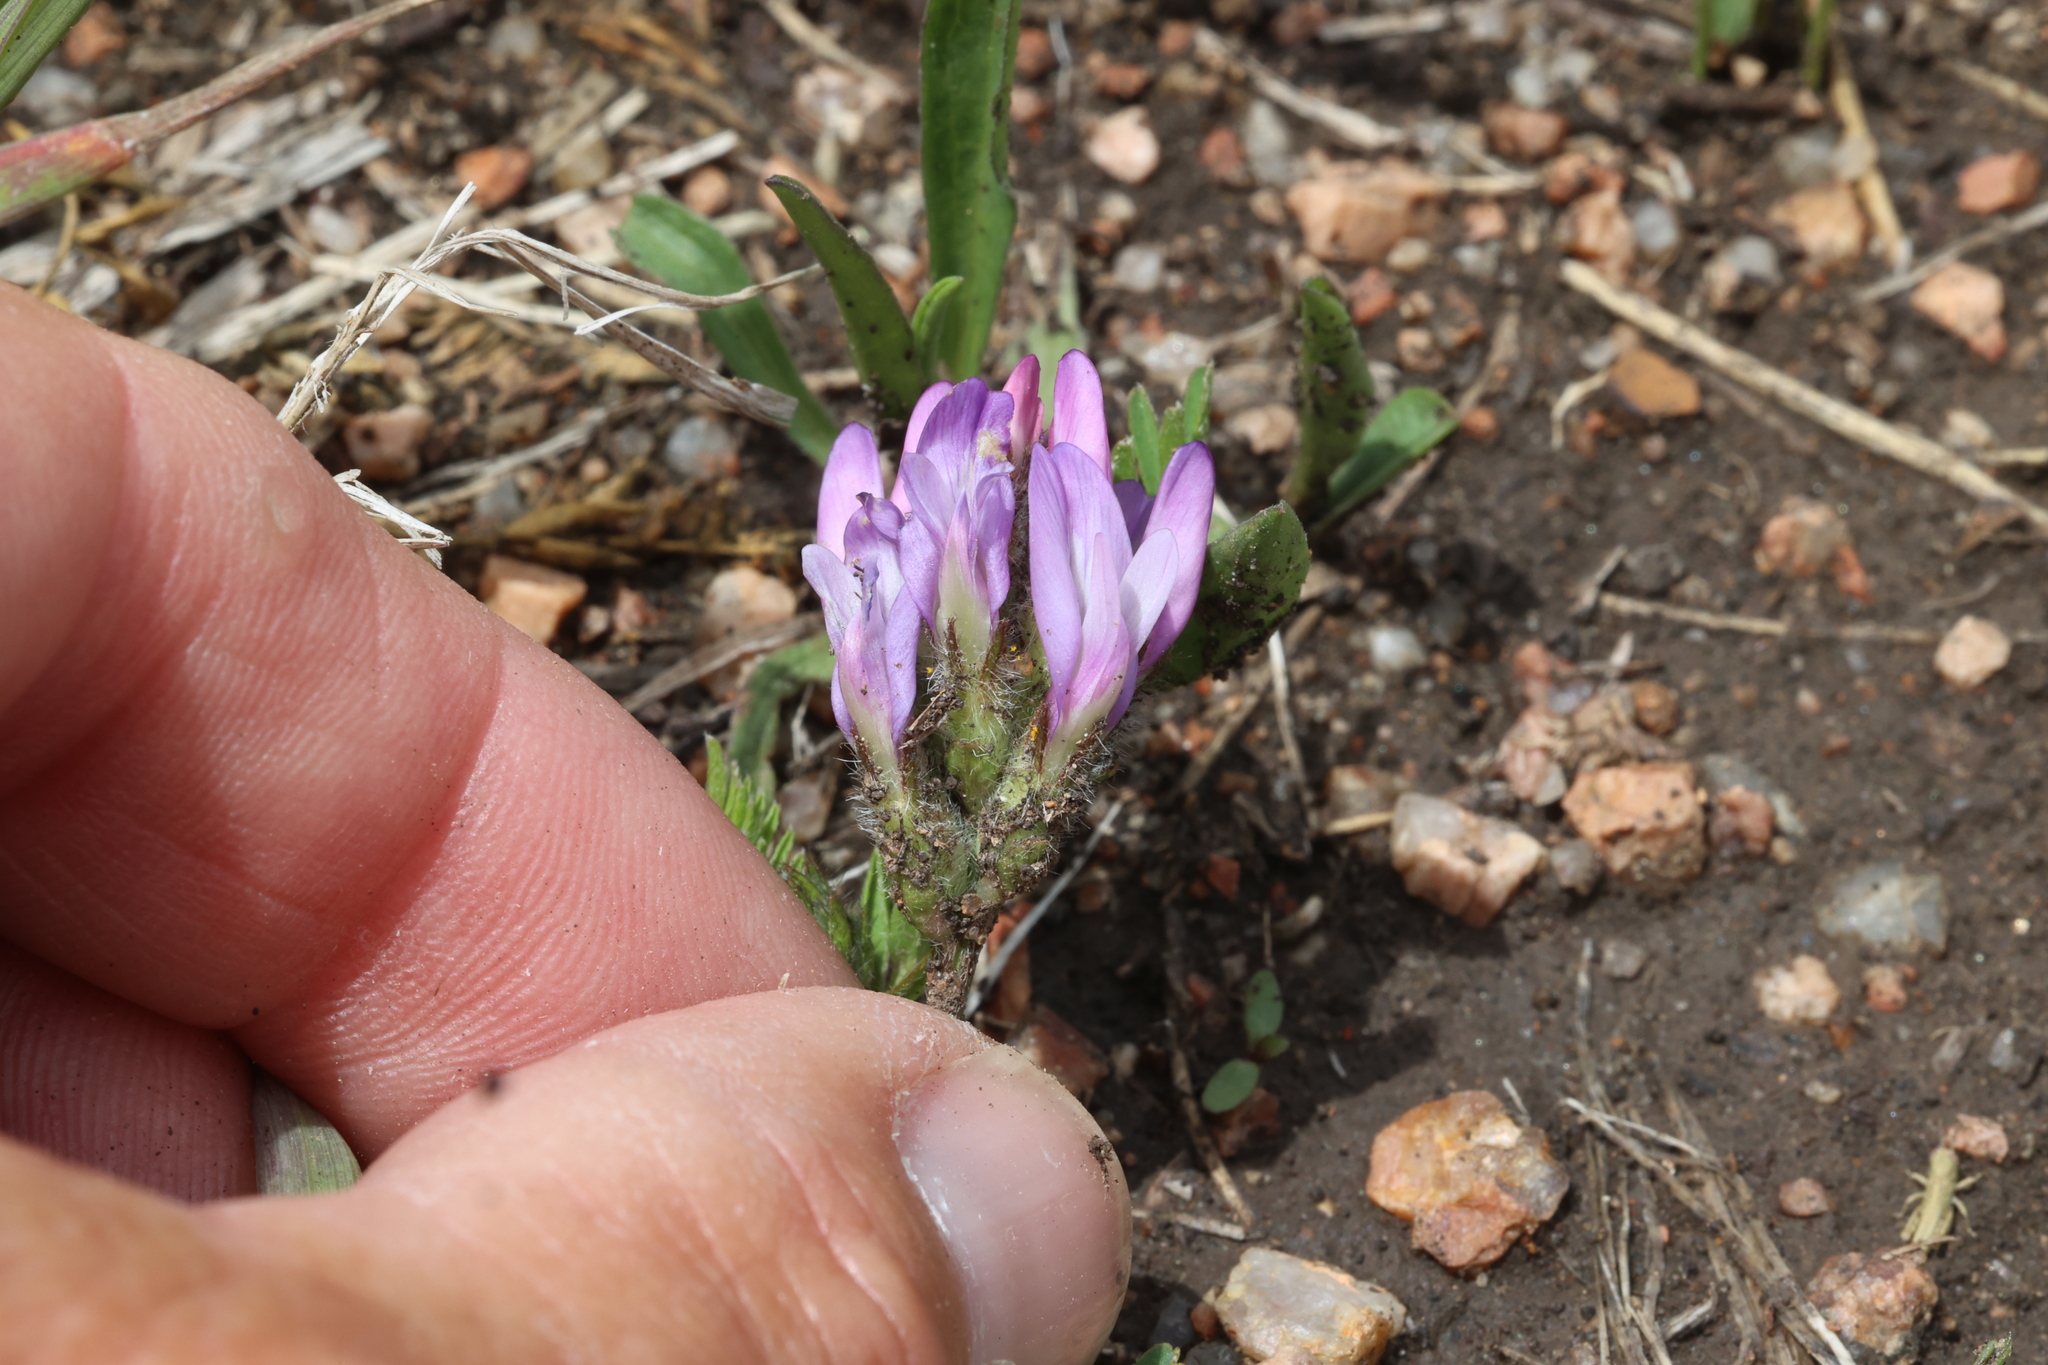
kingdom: Plantae
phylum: Tracheophyta
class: Magnoliopsida
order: Fabales
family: Fabaceae
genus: Astragalus
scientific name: Astragalus agrestis
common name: Field milk-vetch
